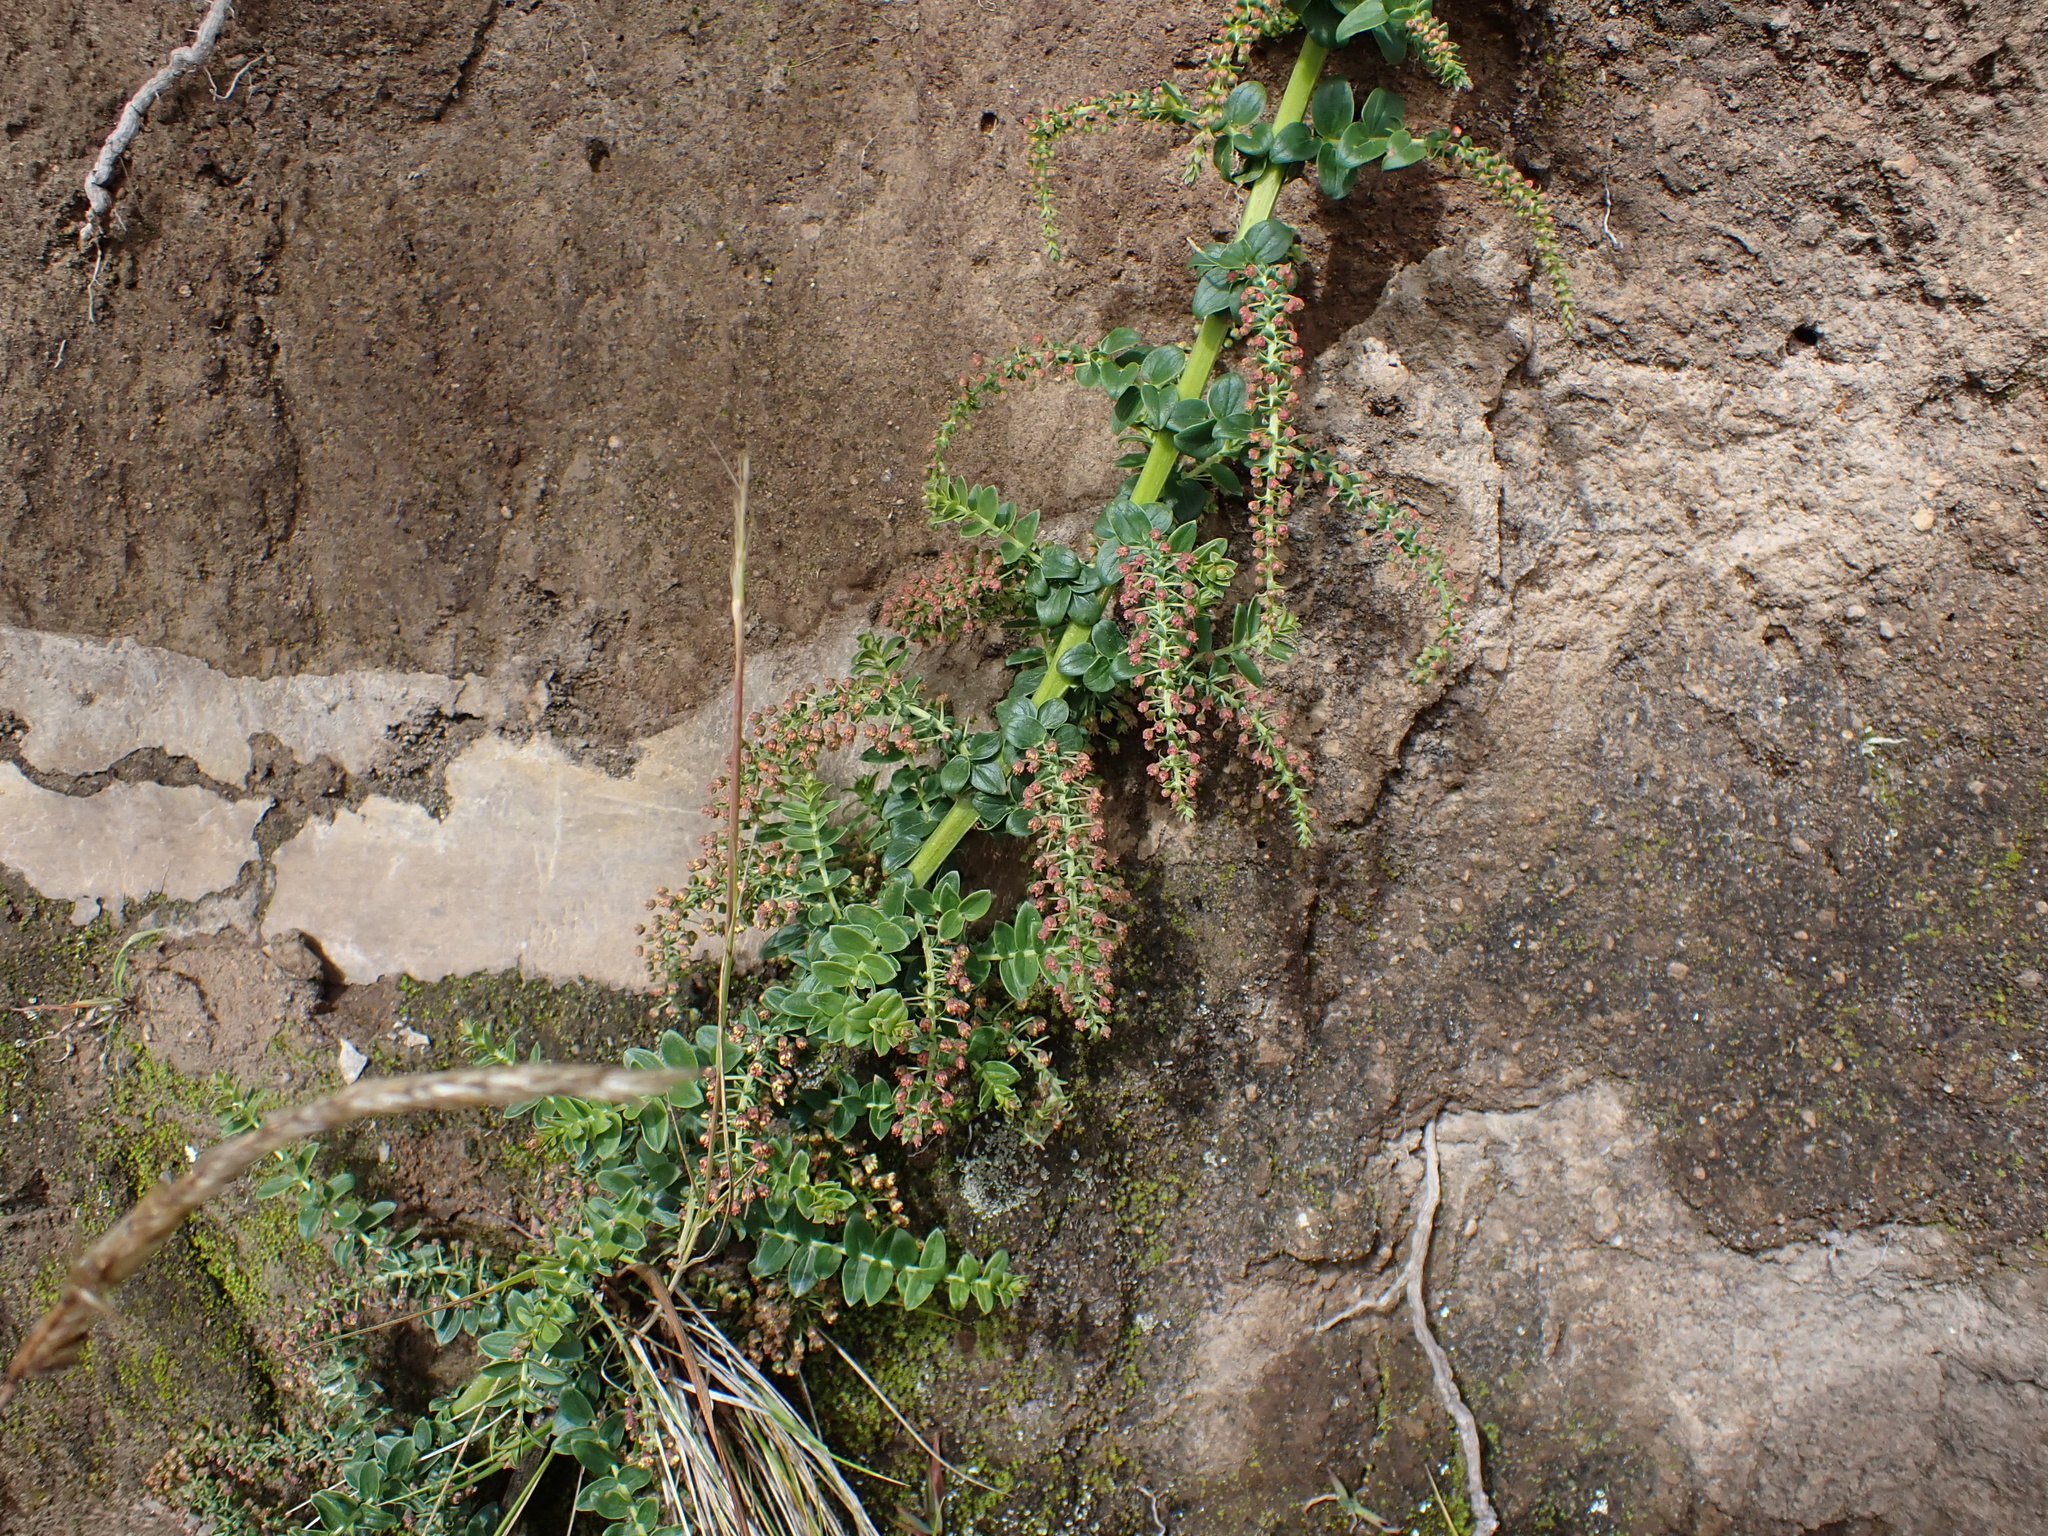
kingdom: Plantae
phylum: Tracheophyta
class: Magnoliopsida
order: Cucurbitales
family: Coriariaceae
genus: Coriaria
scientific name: Coriaria ruscifolia
